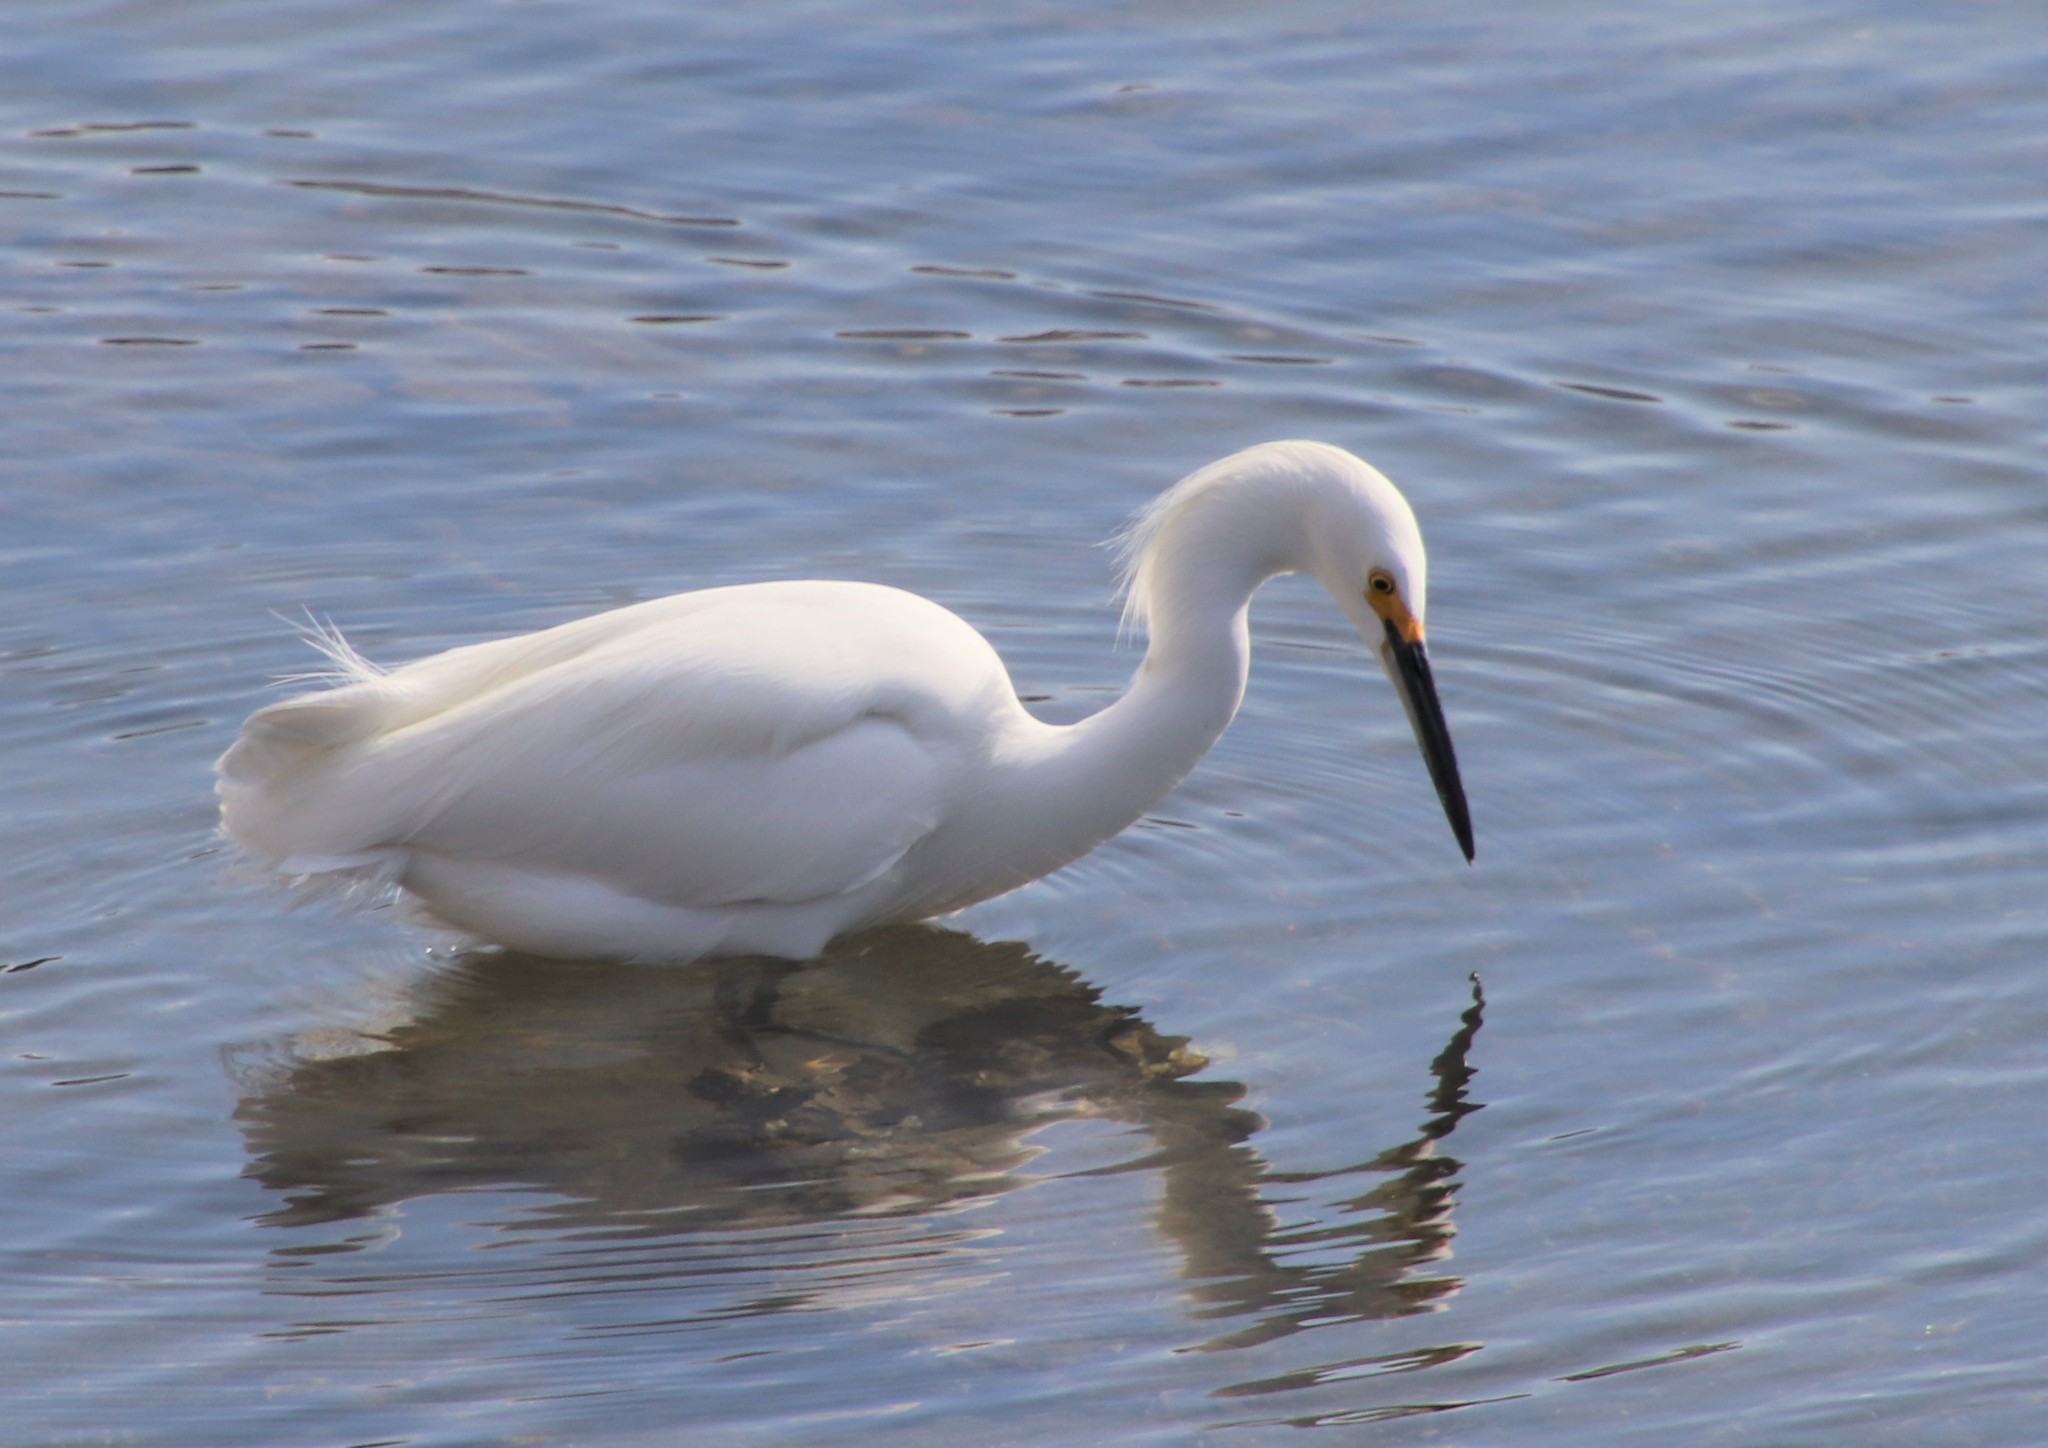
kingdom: Animalia
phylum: Chordata
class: Aves
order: Pelecaniformes
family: Ardeidae
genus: Egretta
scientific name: Egretta thula
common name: Snowy egret
